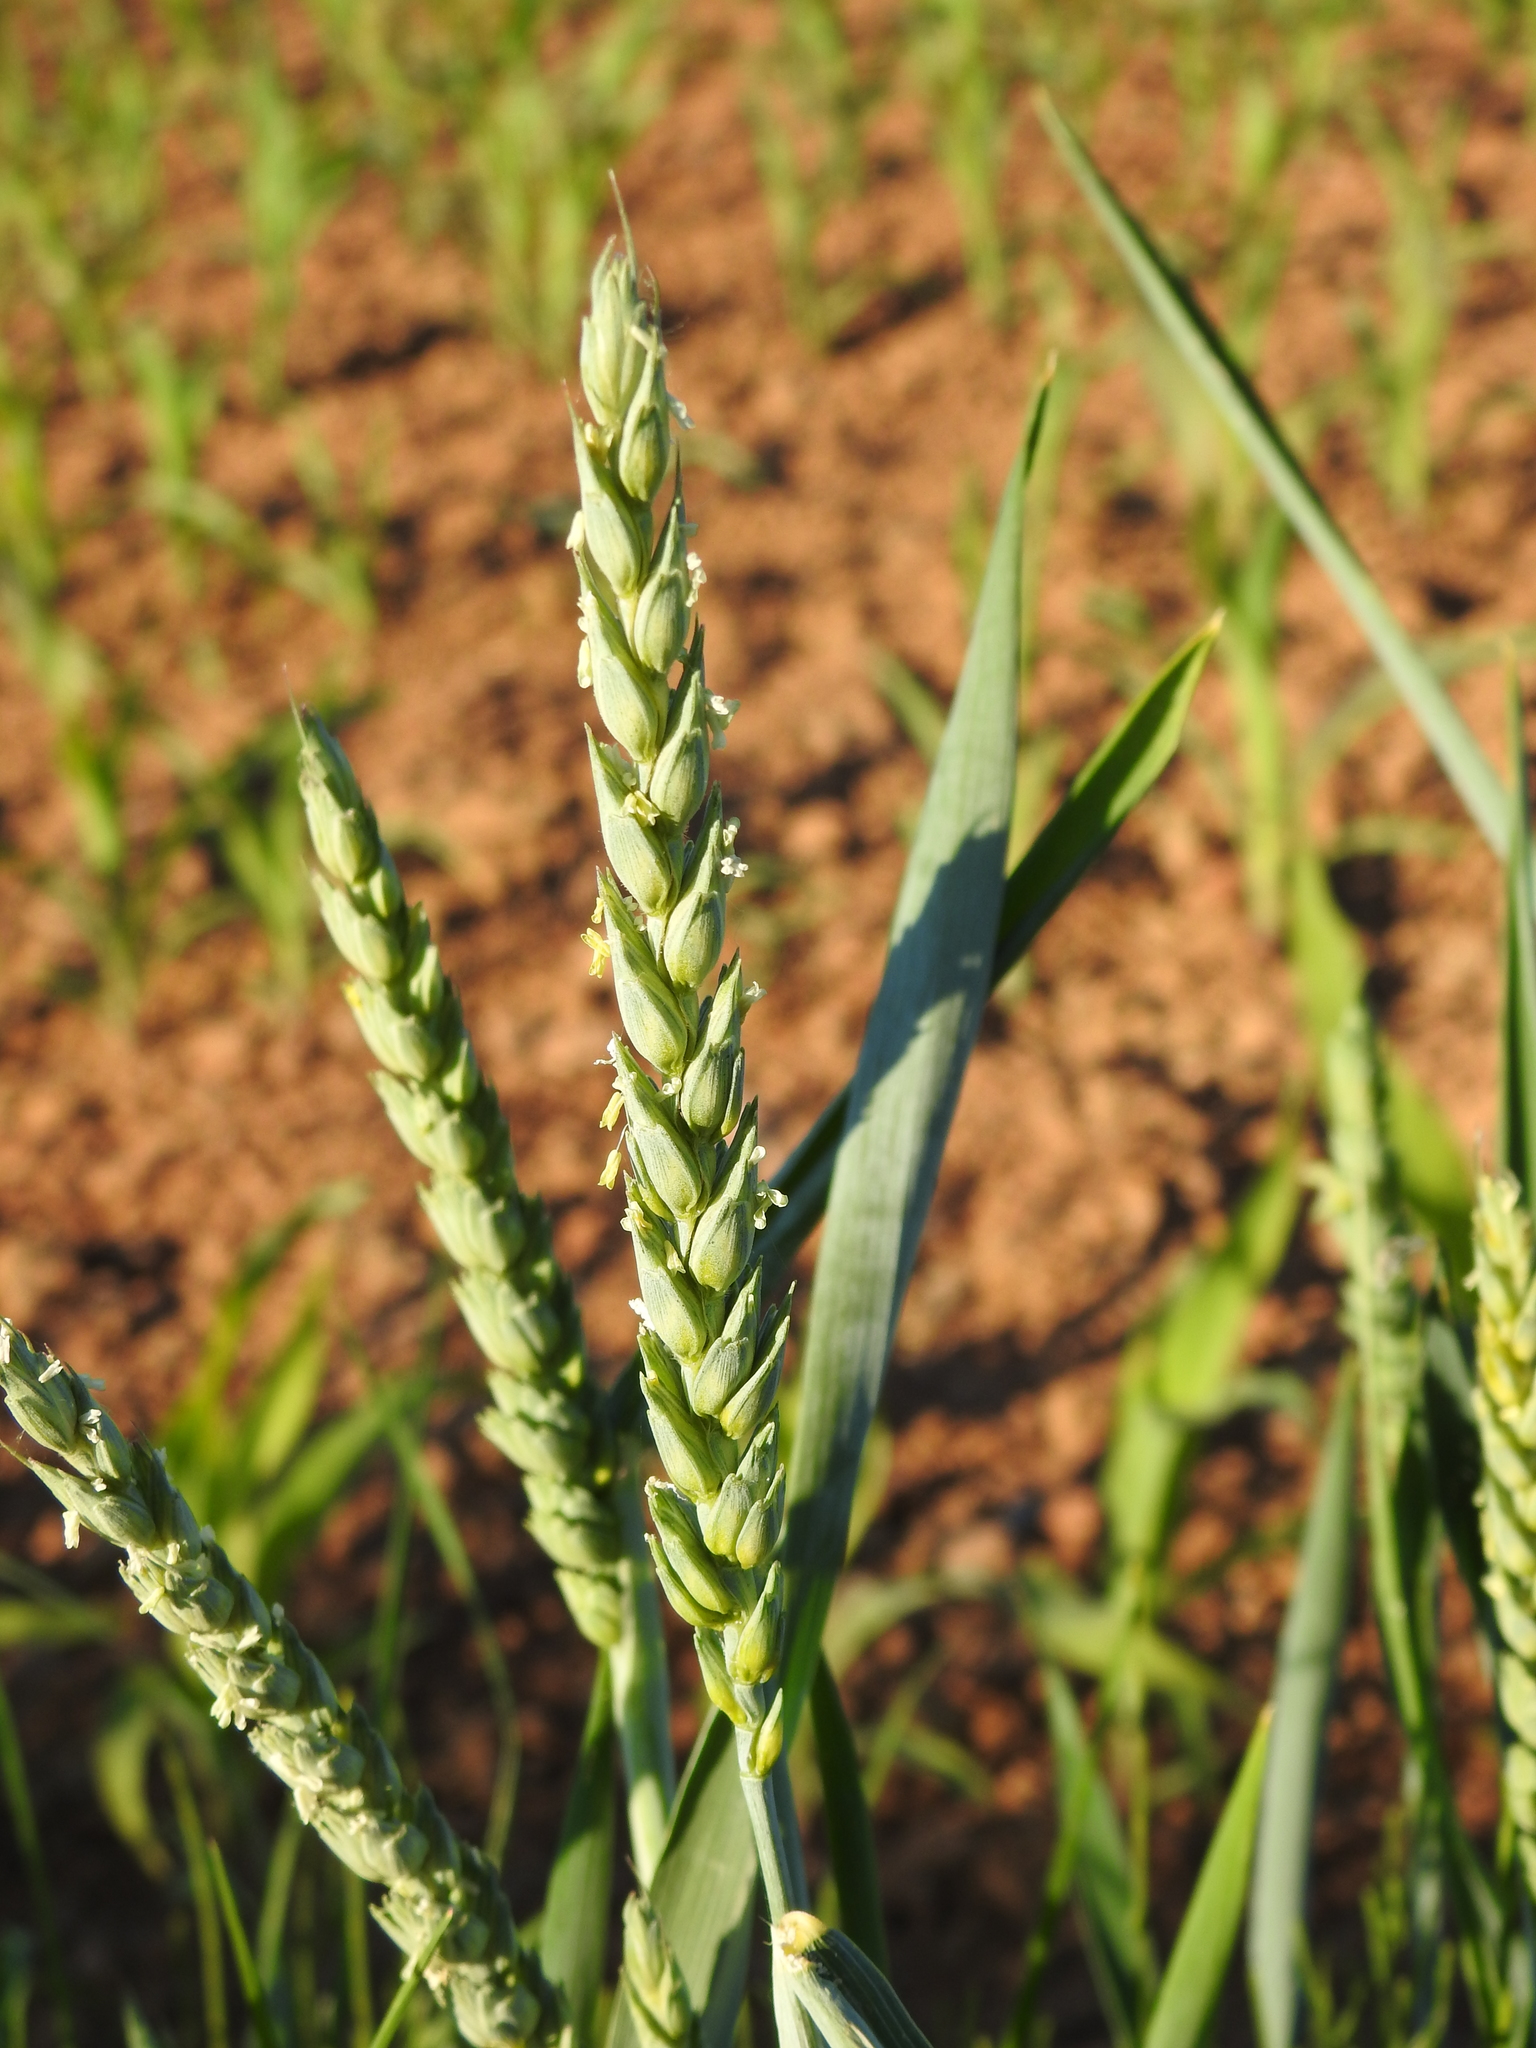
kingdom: Plantae
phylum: Tracheophyta
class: Liliopsida
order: Poales
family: Poaceae
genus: Triticum
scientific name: Triticum aestivum
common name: Common wheat
